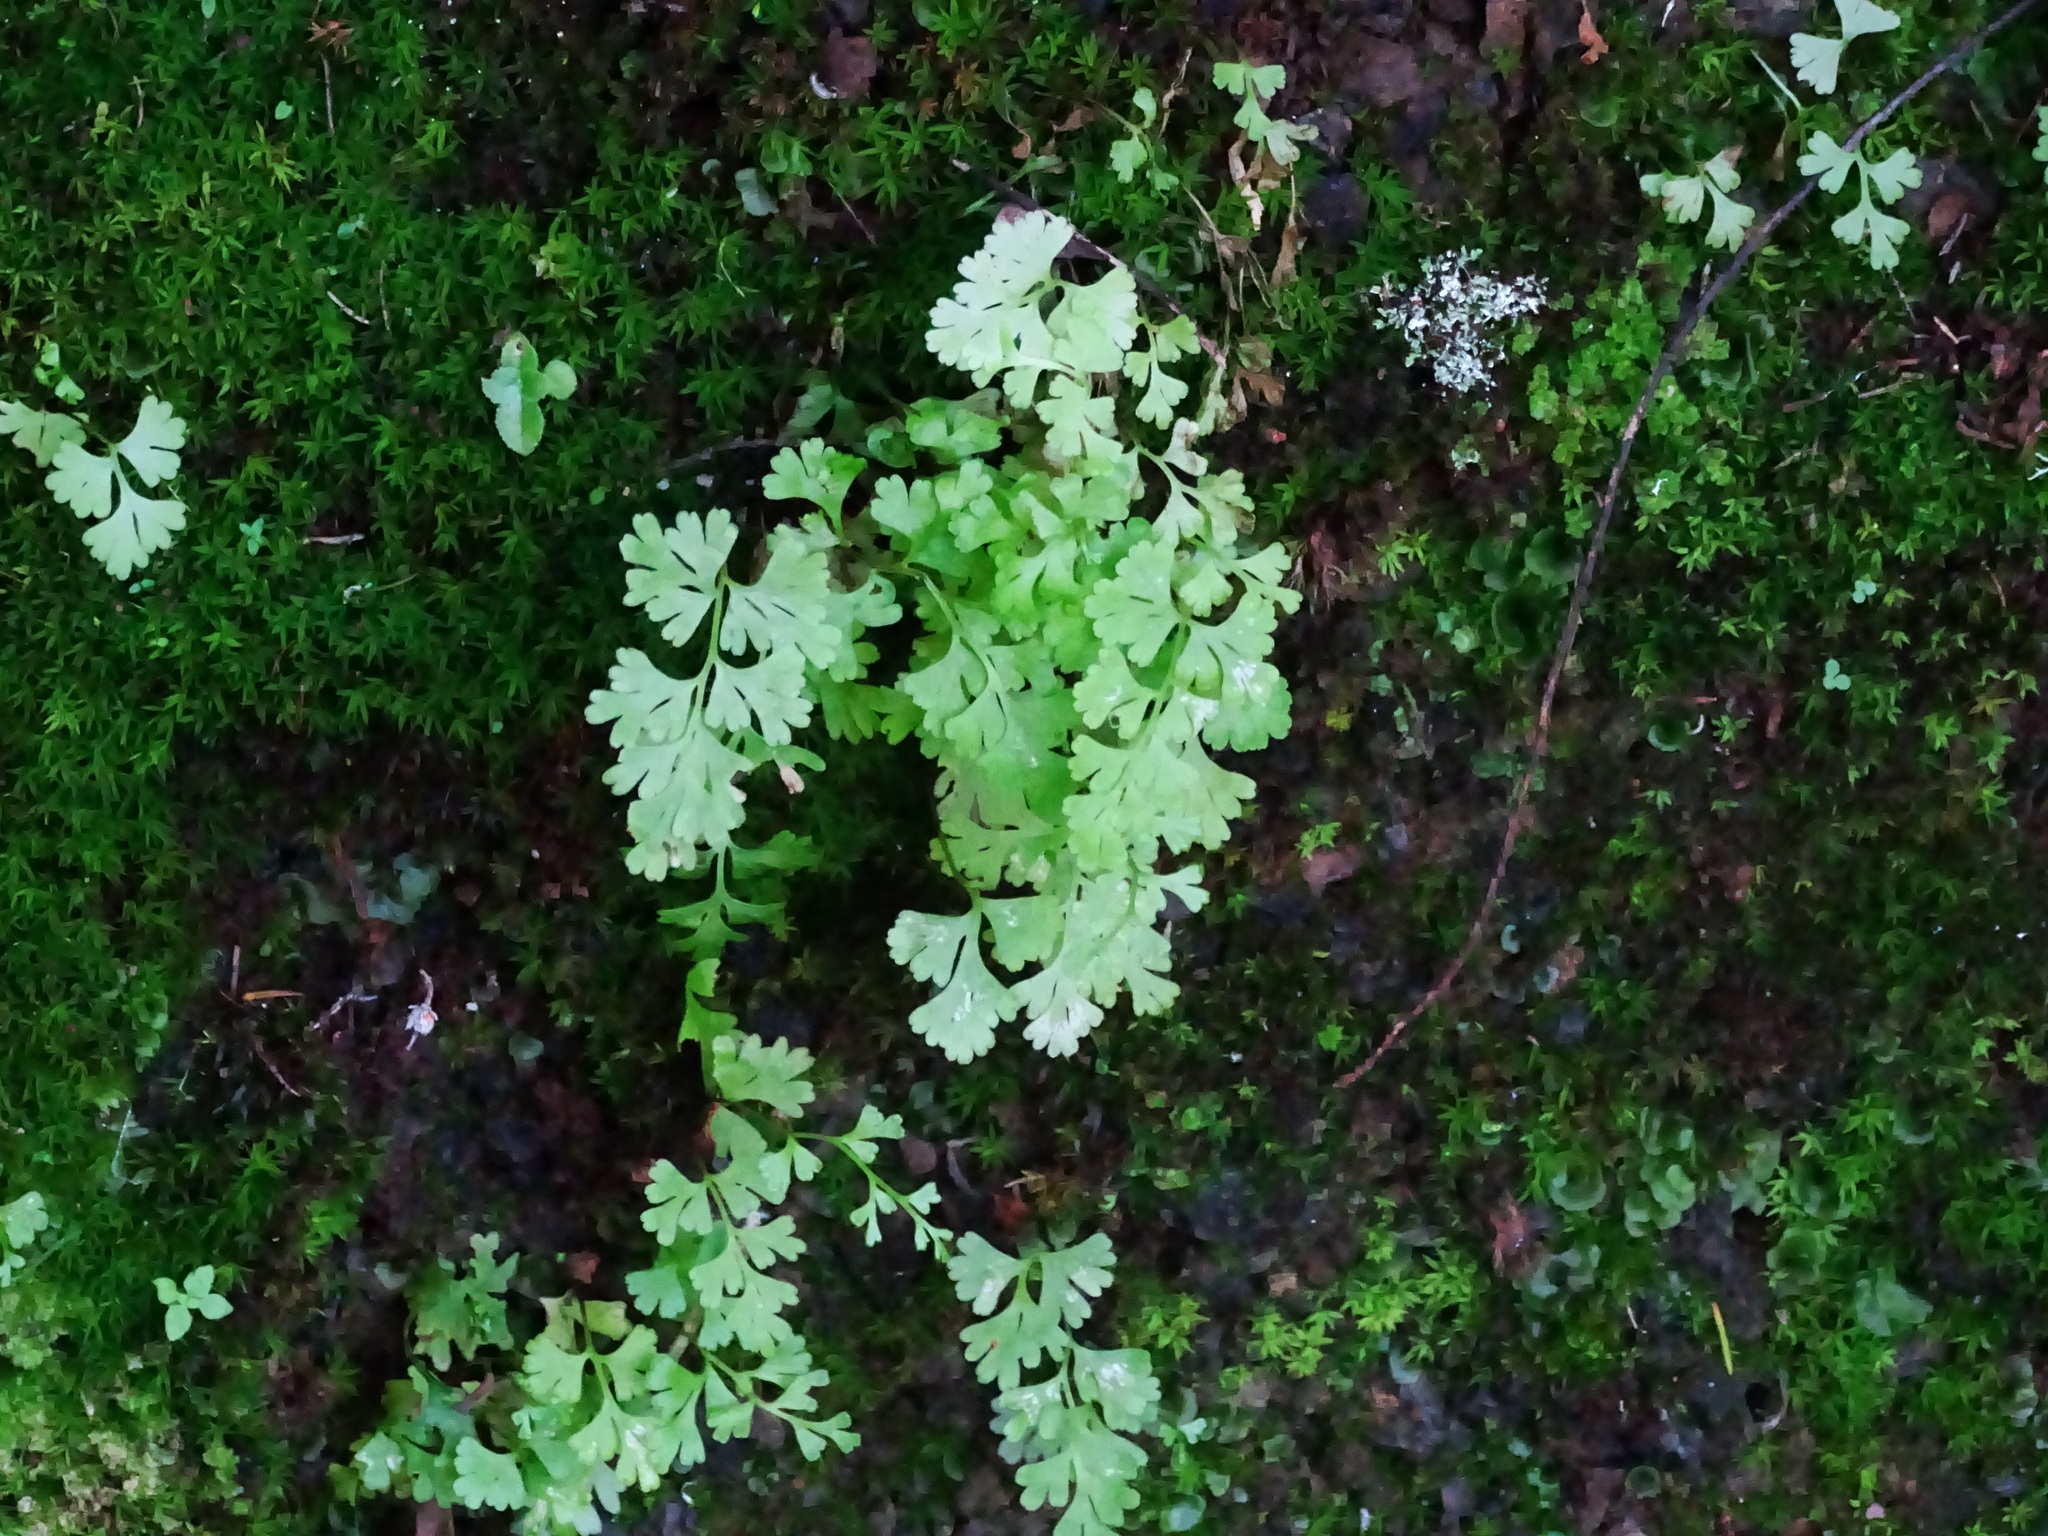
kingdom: Plantae
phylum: Tracheophyta
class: Polypodiopsida
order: Polypodiales
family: Pteridaceae
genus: Anogramma
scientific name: Anogramma leptophylla
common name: Jersey fern
